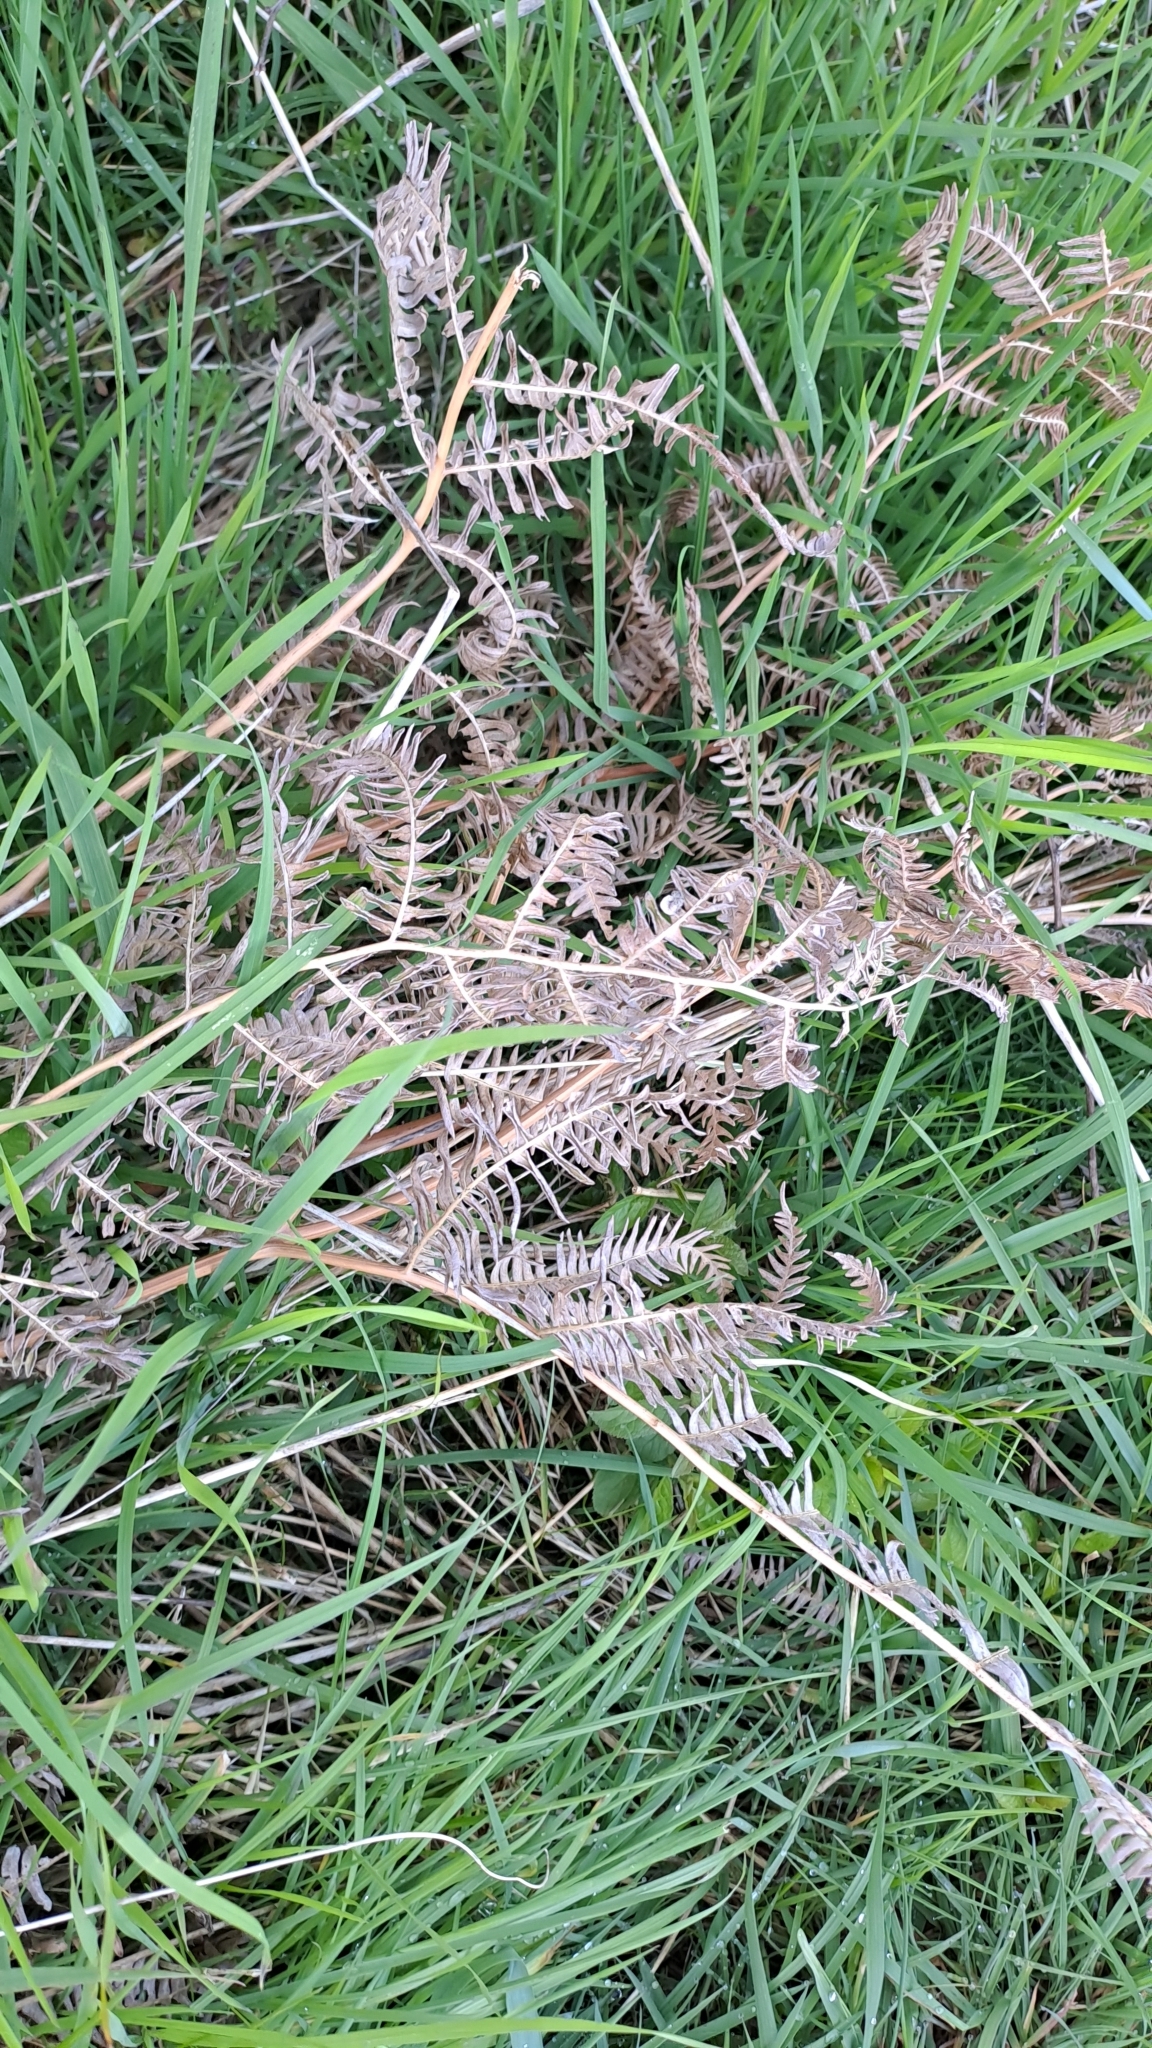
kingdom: Plantae
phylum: Tracheophyta
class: Polypodiopsida
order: Polypodiales
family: Dennstaedtiaceae
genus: Pteridium
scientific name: Pteridium aquilinum
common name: Bracken
